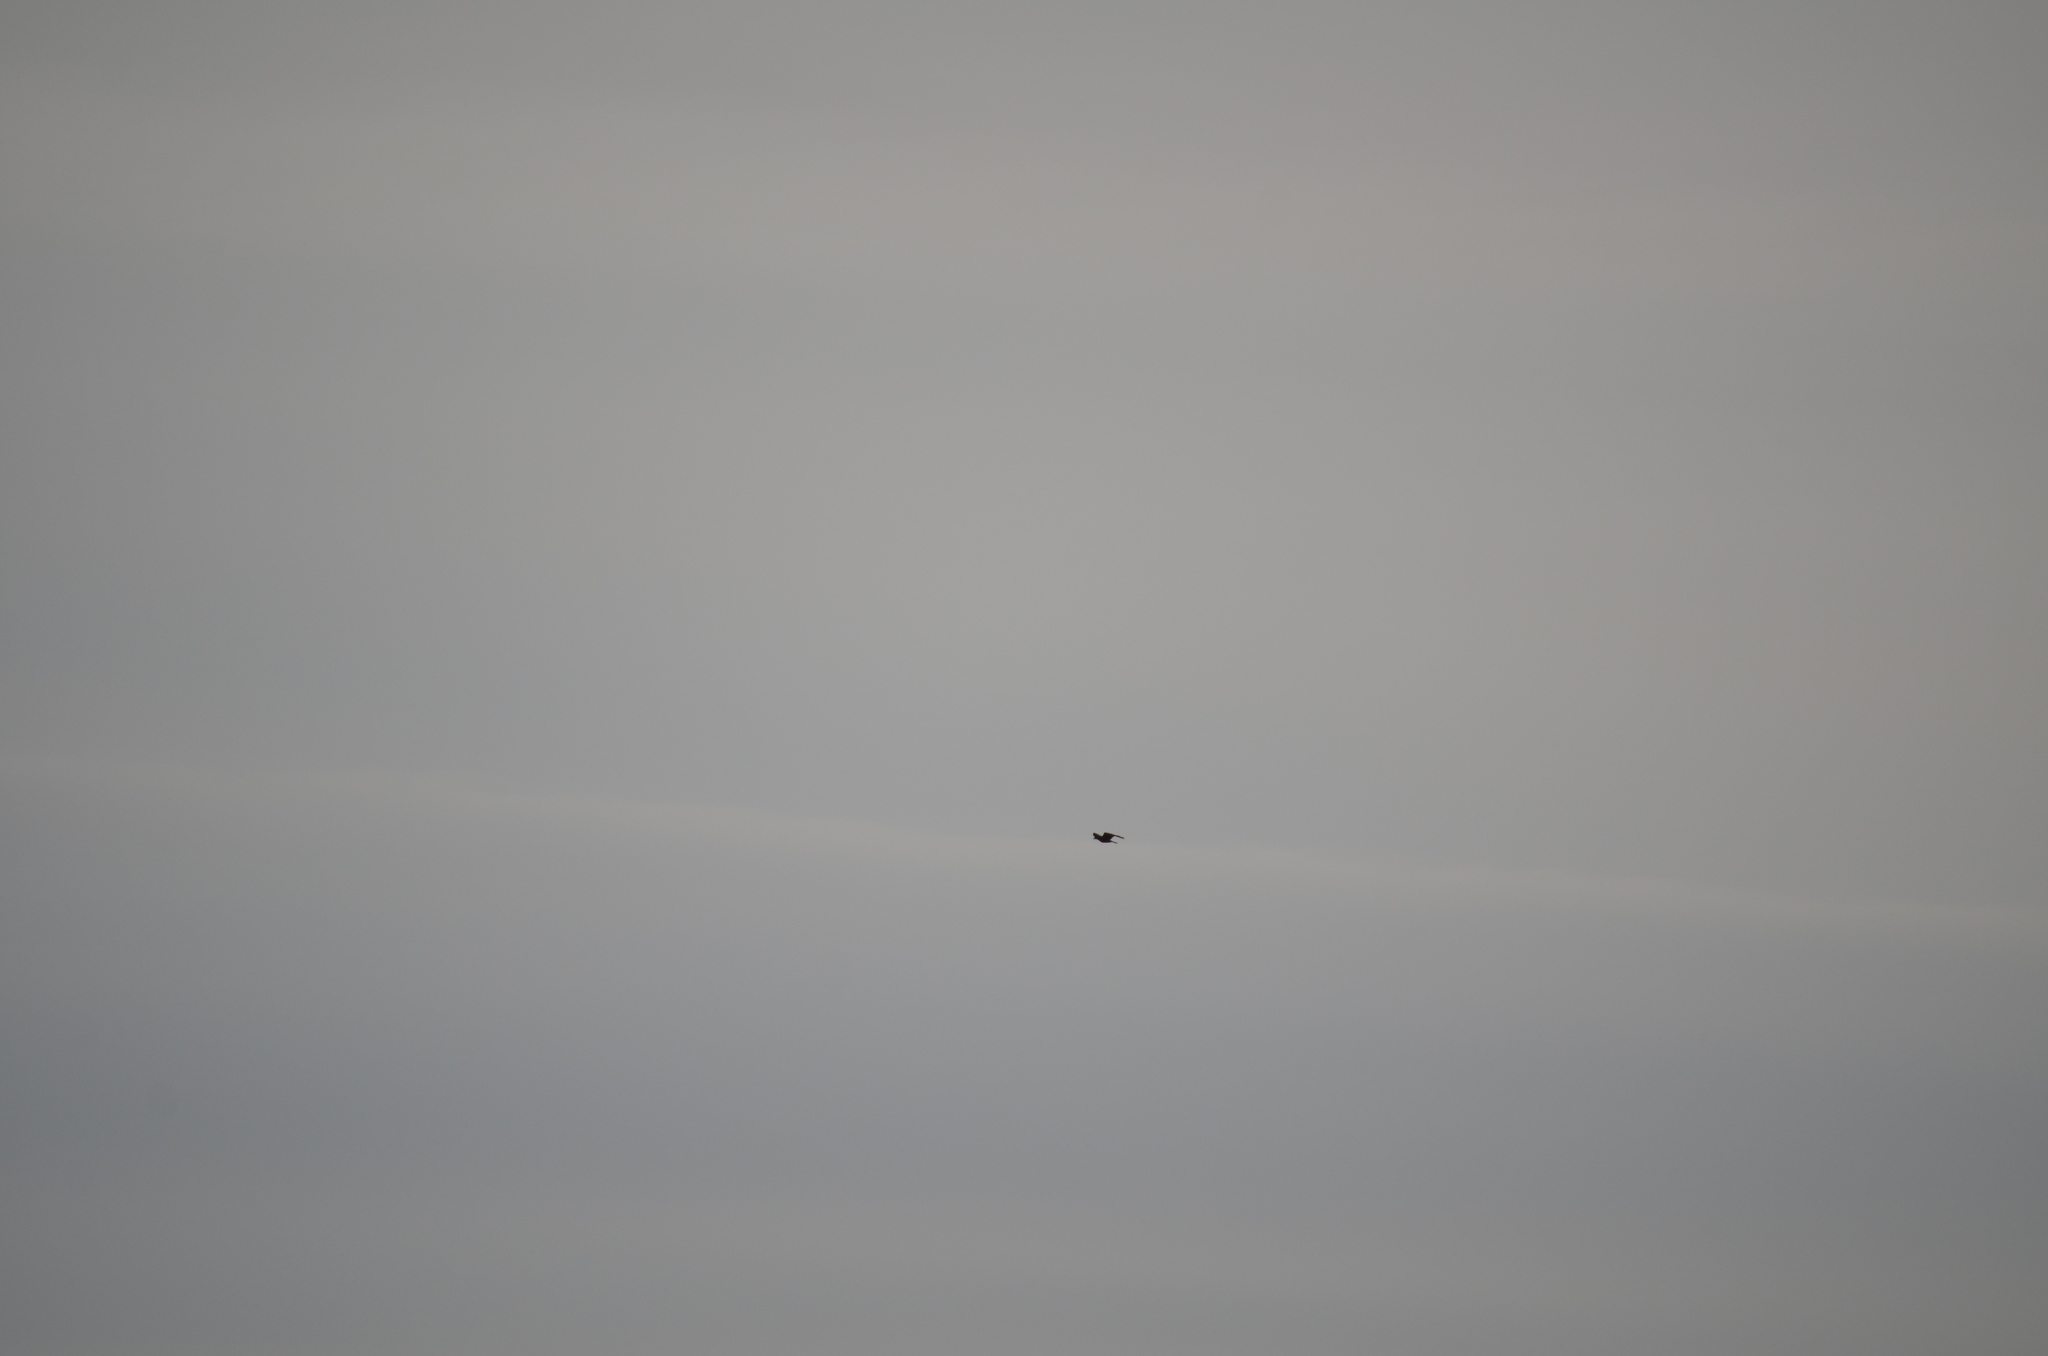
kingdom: Animalia
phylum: Chordata
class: Aves
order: Accipitriformes
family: Accipitridae
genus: Haliaeetus
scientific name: Haliaeetus leucocephalus
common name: Bald eagle
